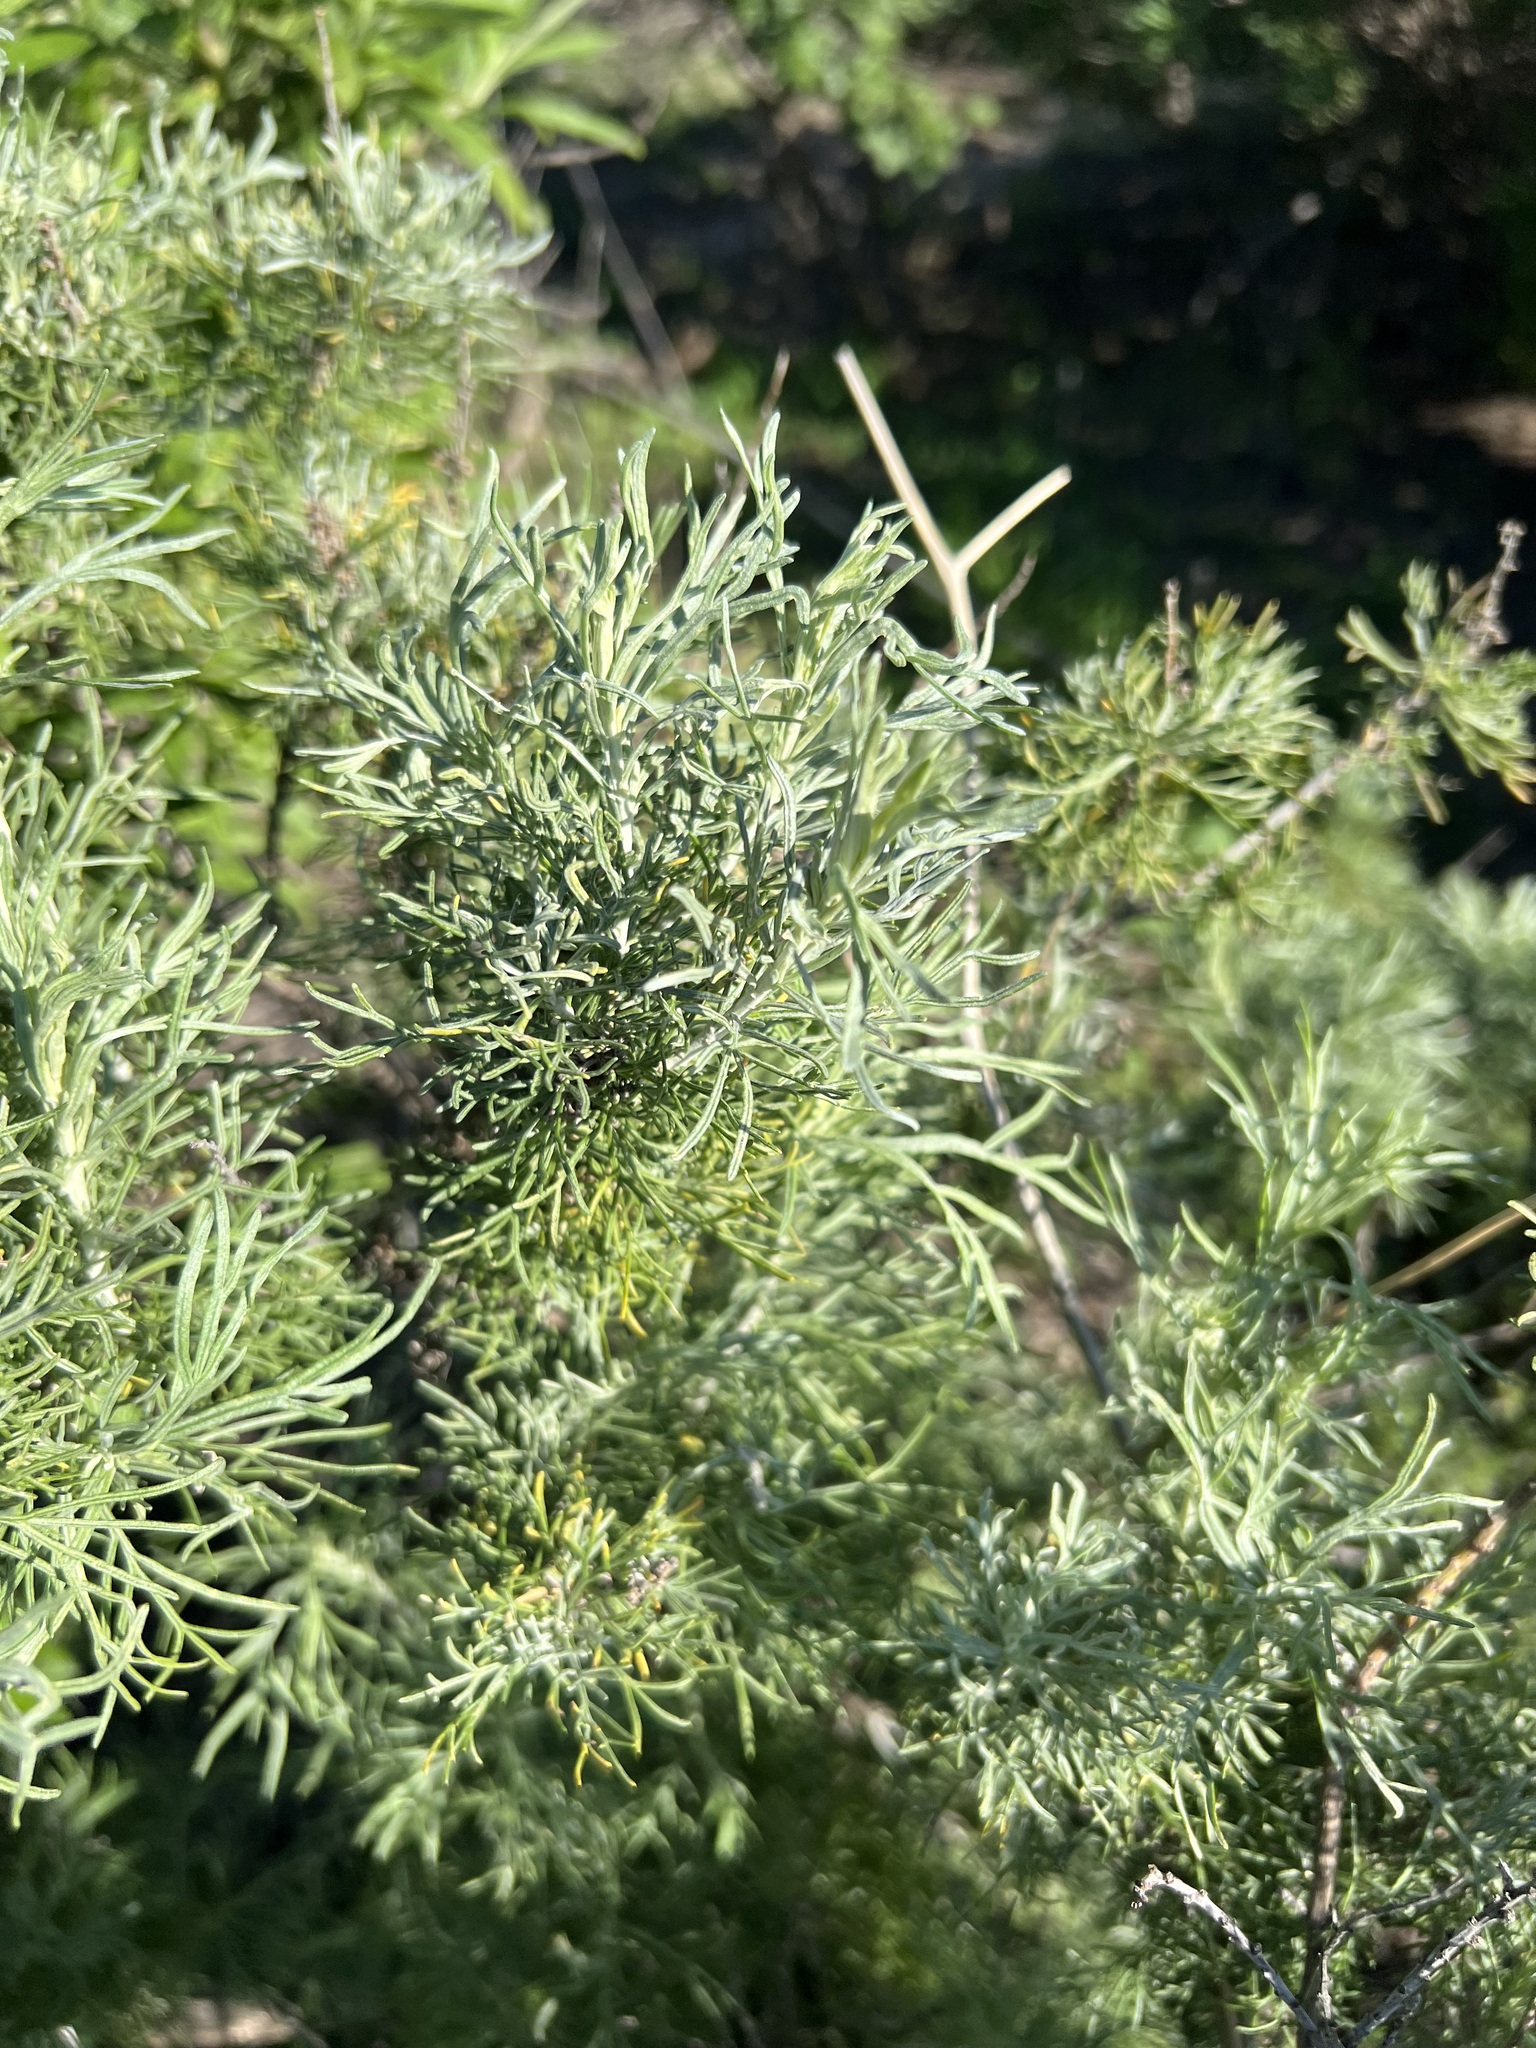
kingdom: Plantae
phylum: Tracheophyta
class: Magnoliopsida
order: Asterales
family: Asteraceae
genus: Artemisia
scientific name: Artemisia californica
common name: California sagebrush
